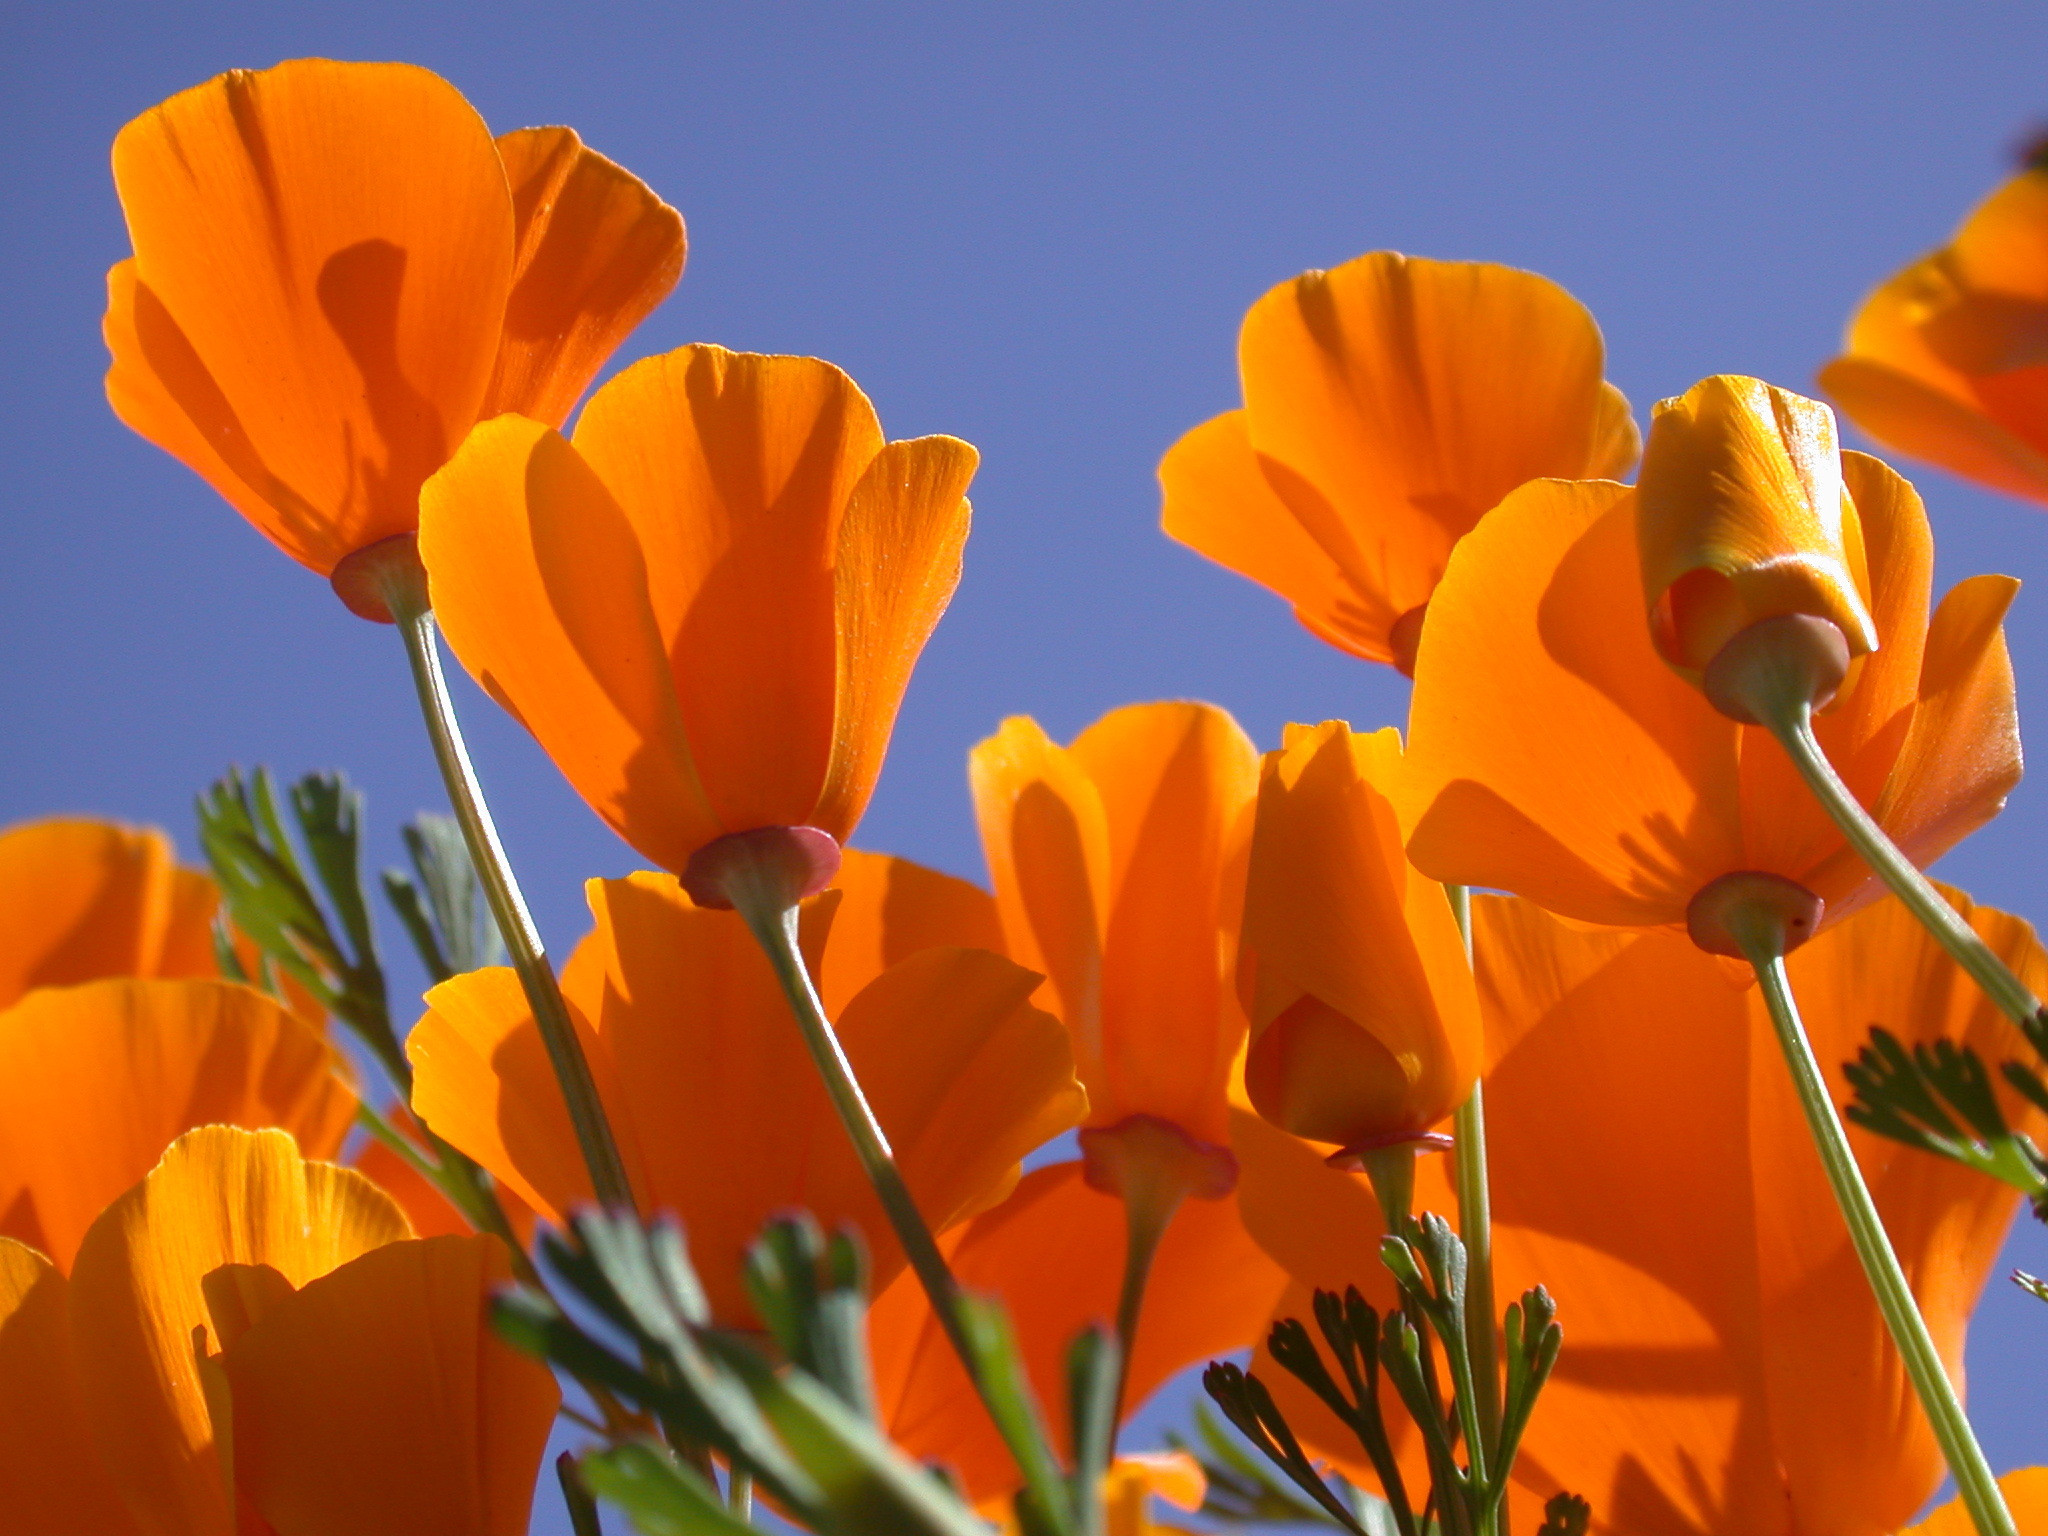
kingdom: Plantae
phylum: Tracheophyta
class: Magnoliopsida
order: Ranunculales
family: Papaveraceae
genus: Eschscholzia
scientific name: Eschscholzia californica
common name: California poppy
